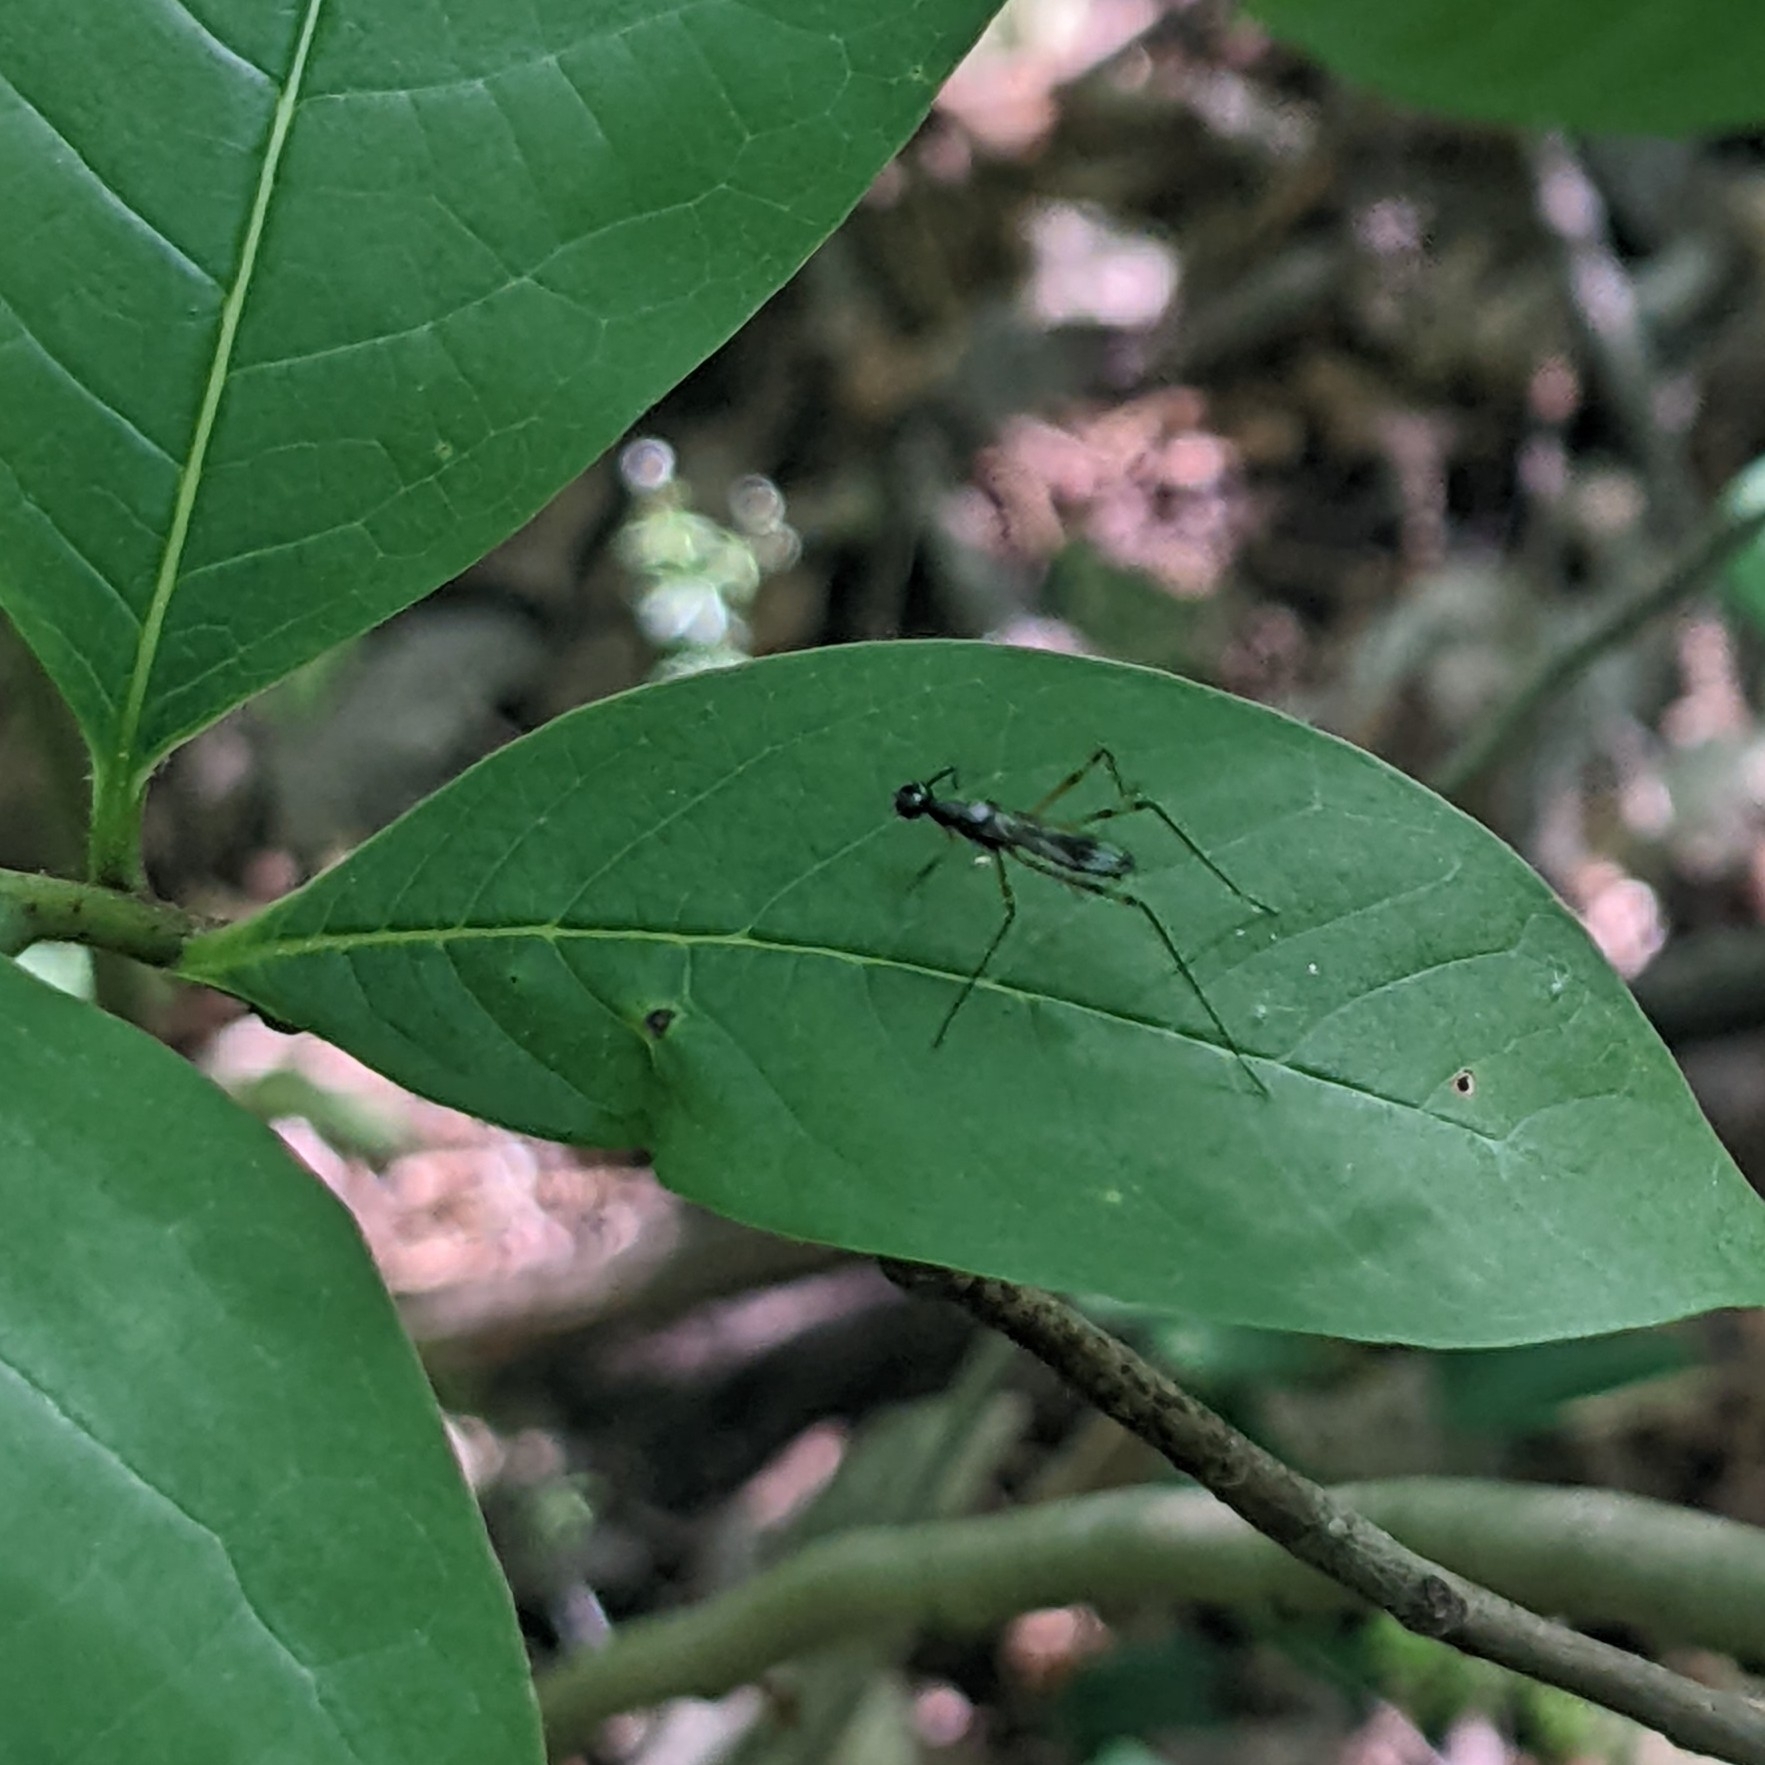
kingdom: Animalia
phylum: Arthropoda
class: Insecta
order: Diptera
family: Micropezidae
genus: Rainieria
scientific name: Rainieria antennaepes
